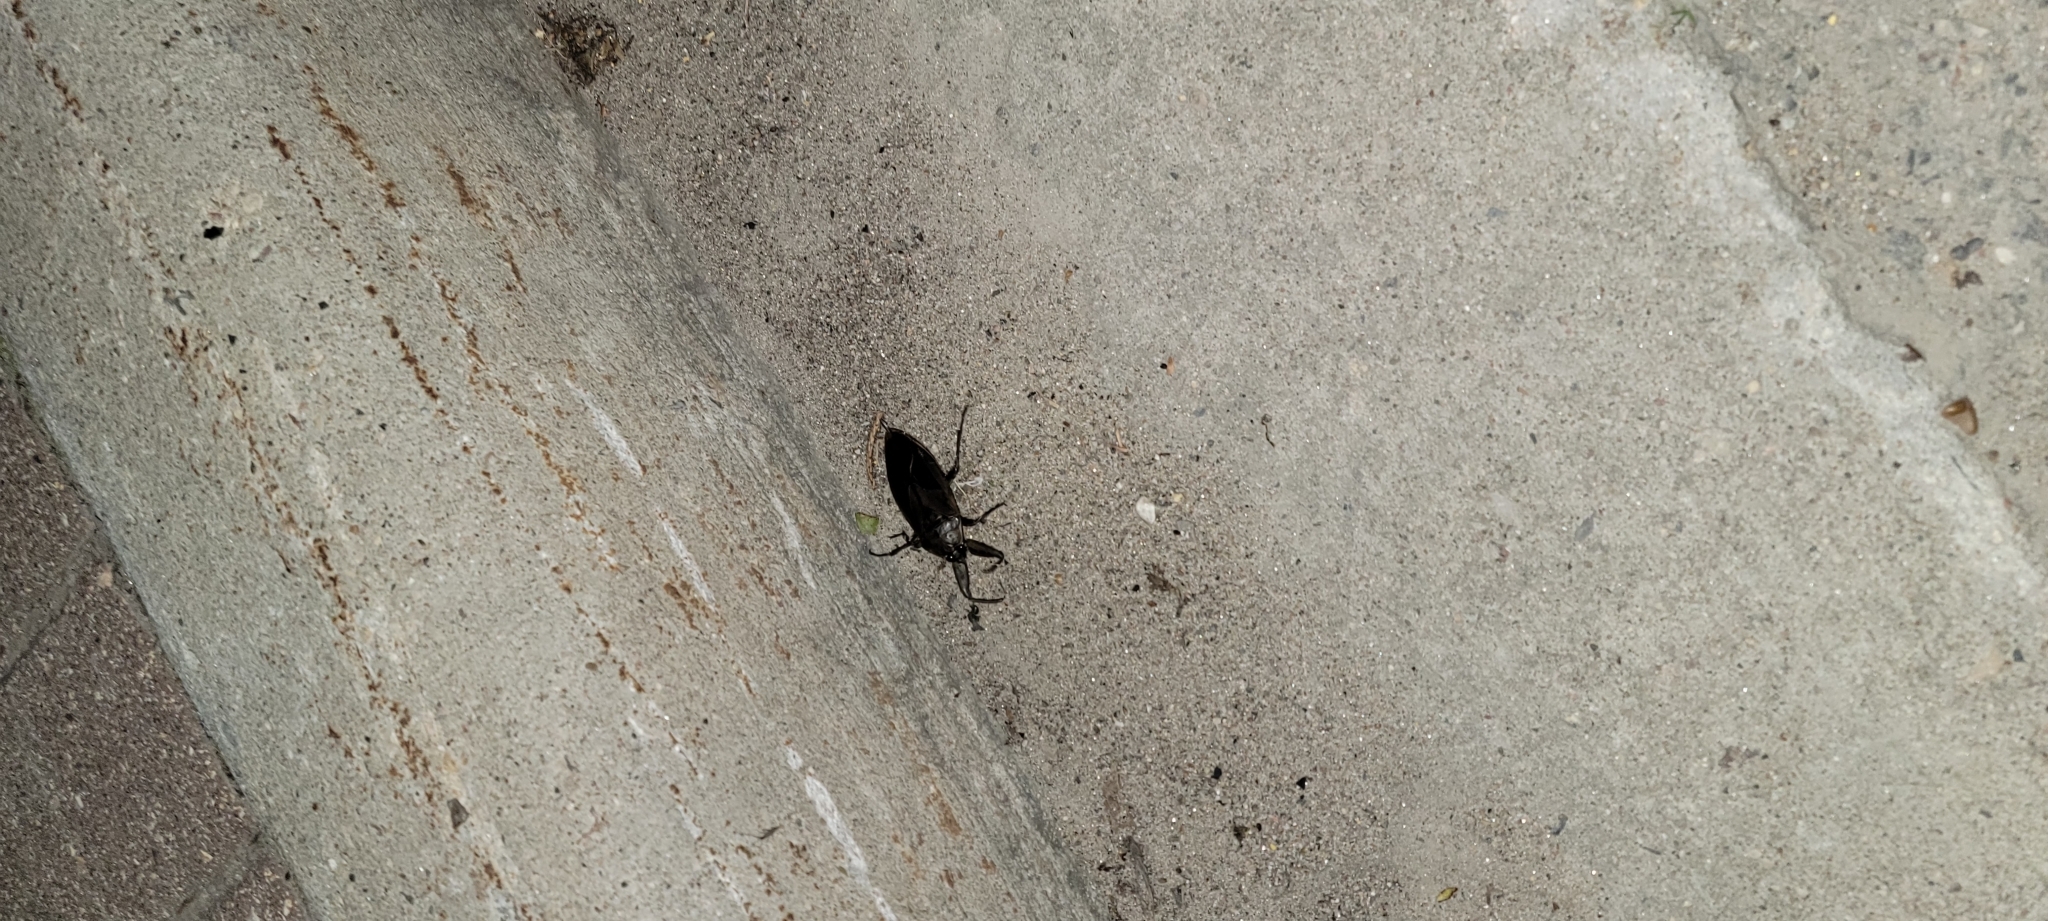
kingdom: Animalia
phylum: Arthropoda
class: Insecta
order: Hemiptera
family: Belostomatidae
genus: Lethocerus
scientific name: Lethocerus americanus
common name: Giant water bug
